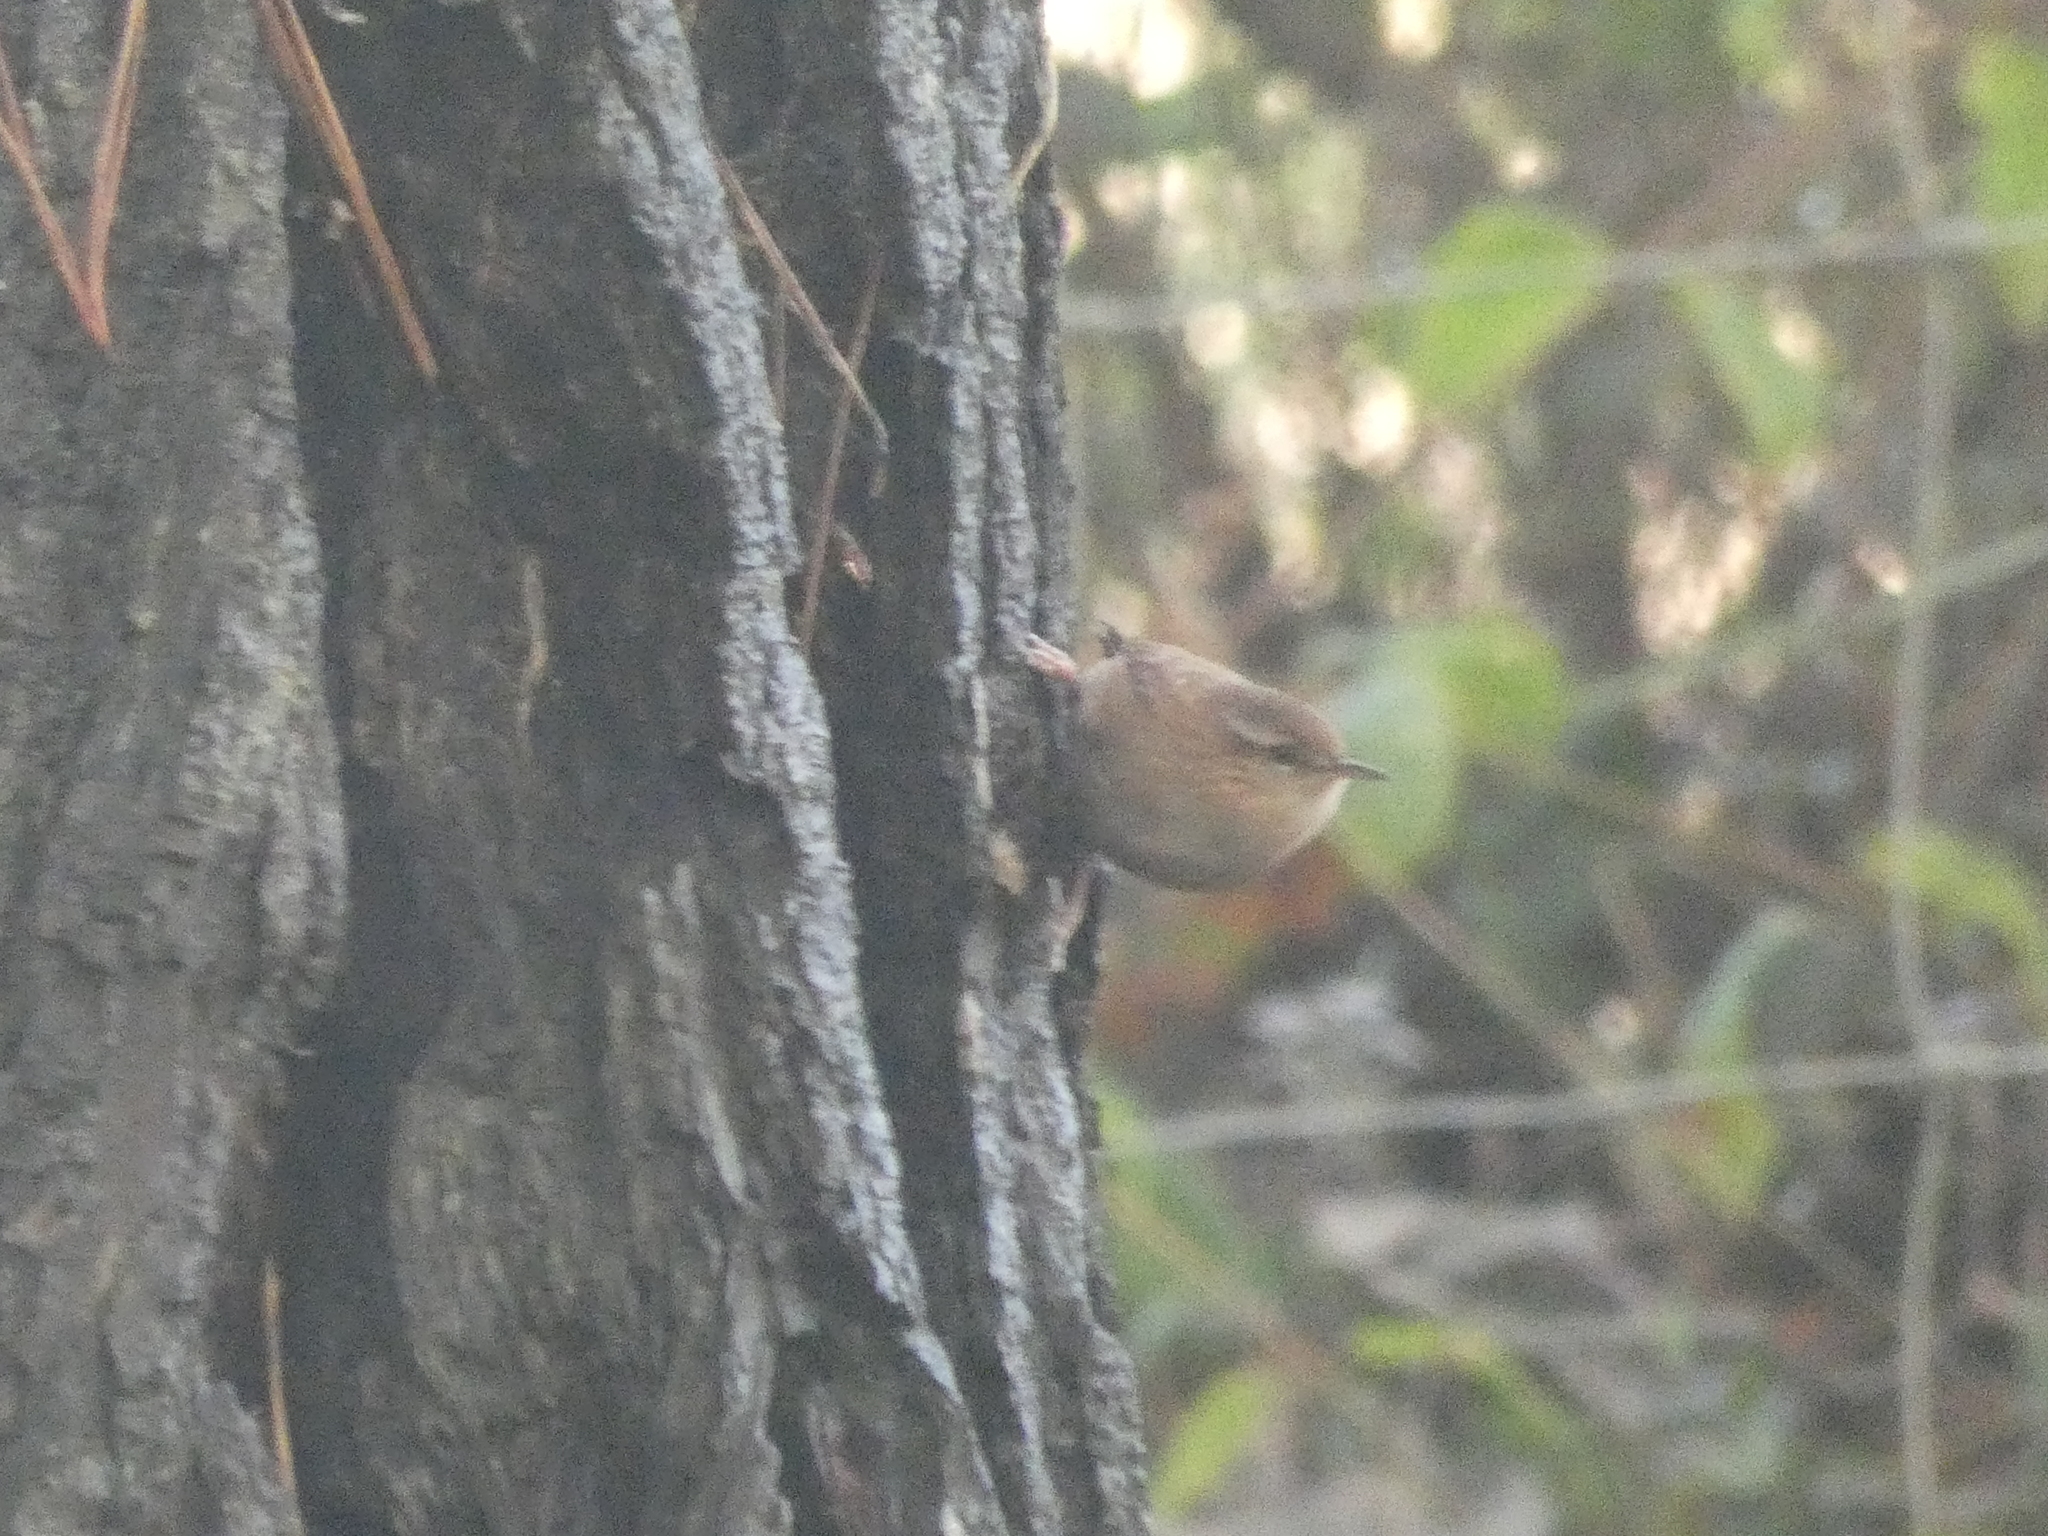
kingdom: Animalia
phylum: Chordata
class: Aves
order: Passeriformes
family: Troglodytidae
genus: Troglodytes
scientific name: Troglodytes troglodytes
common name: Eurasian wren
